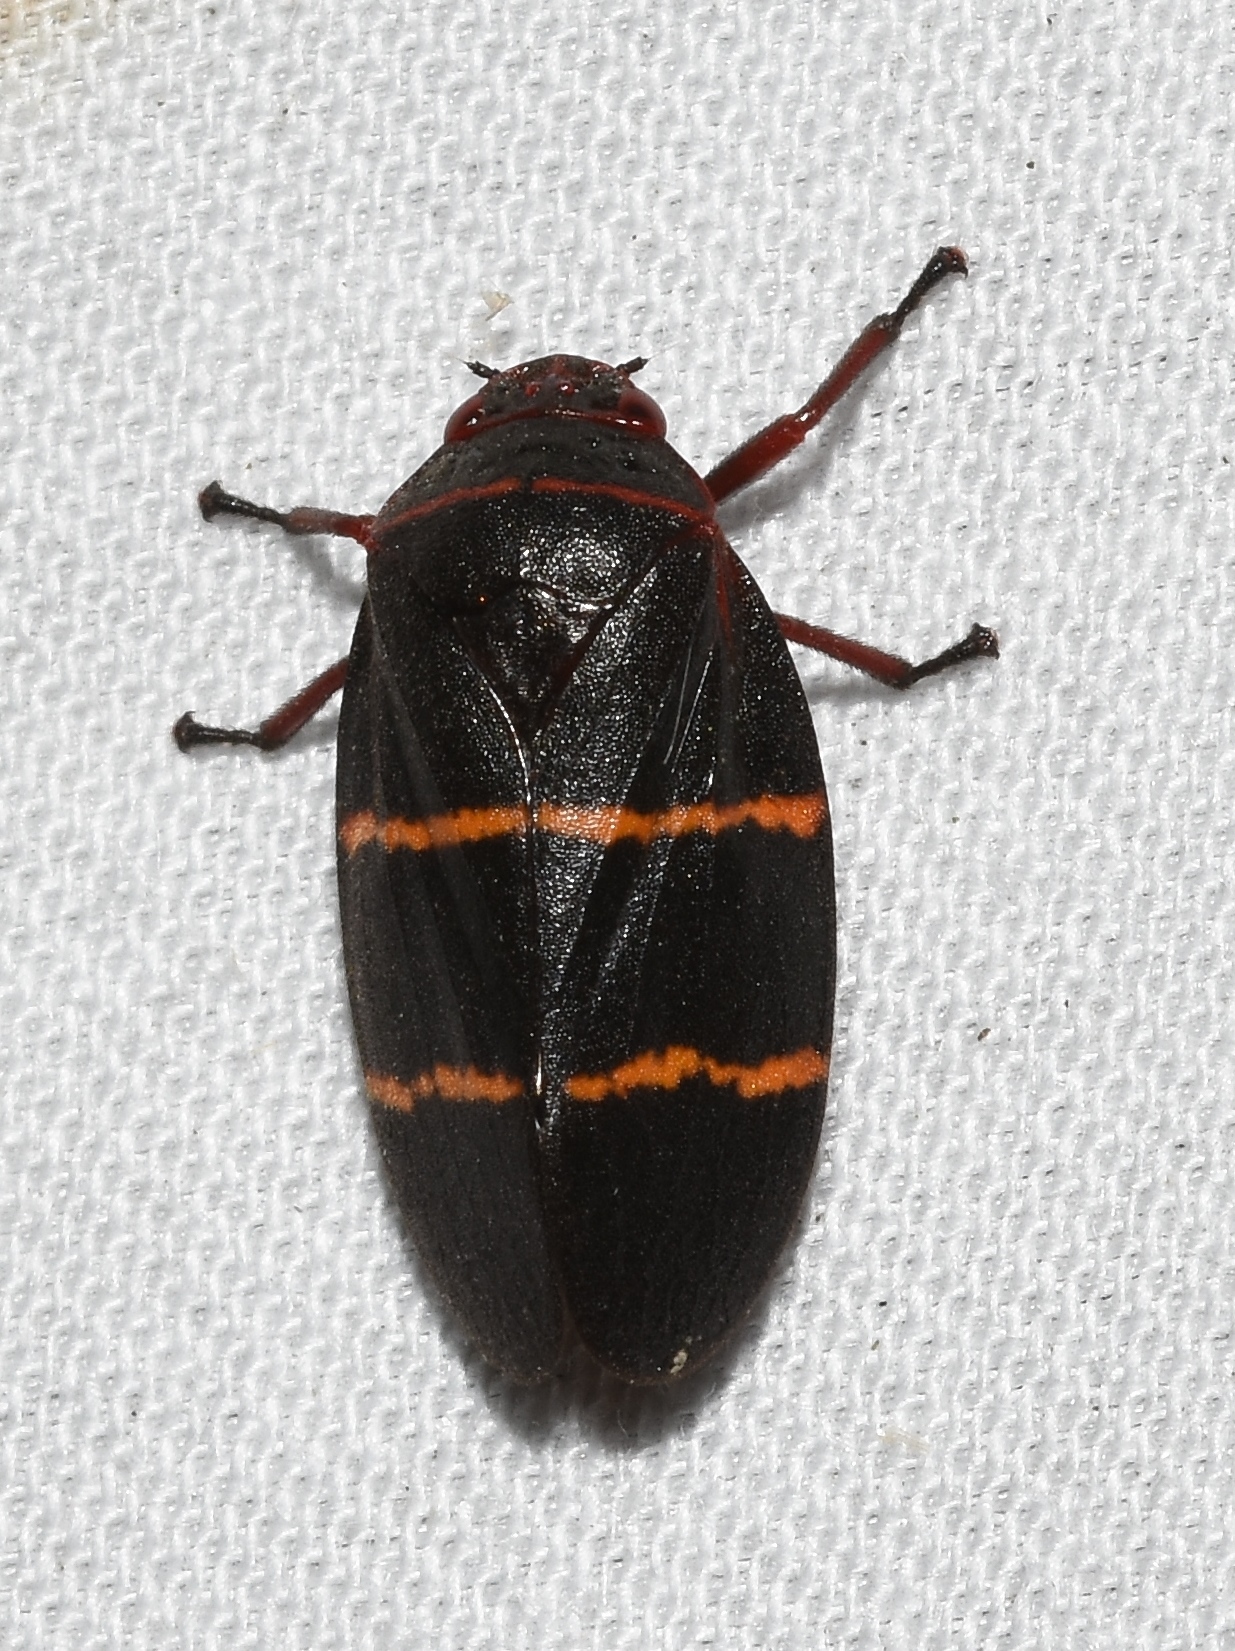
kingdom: Animalia
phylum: Arthropoda
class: Insecta
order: Hemiptera
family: Cercopidae
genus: Prosapia
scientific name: Prosapia bicincta
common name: Twolined spittlebug
